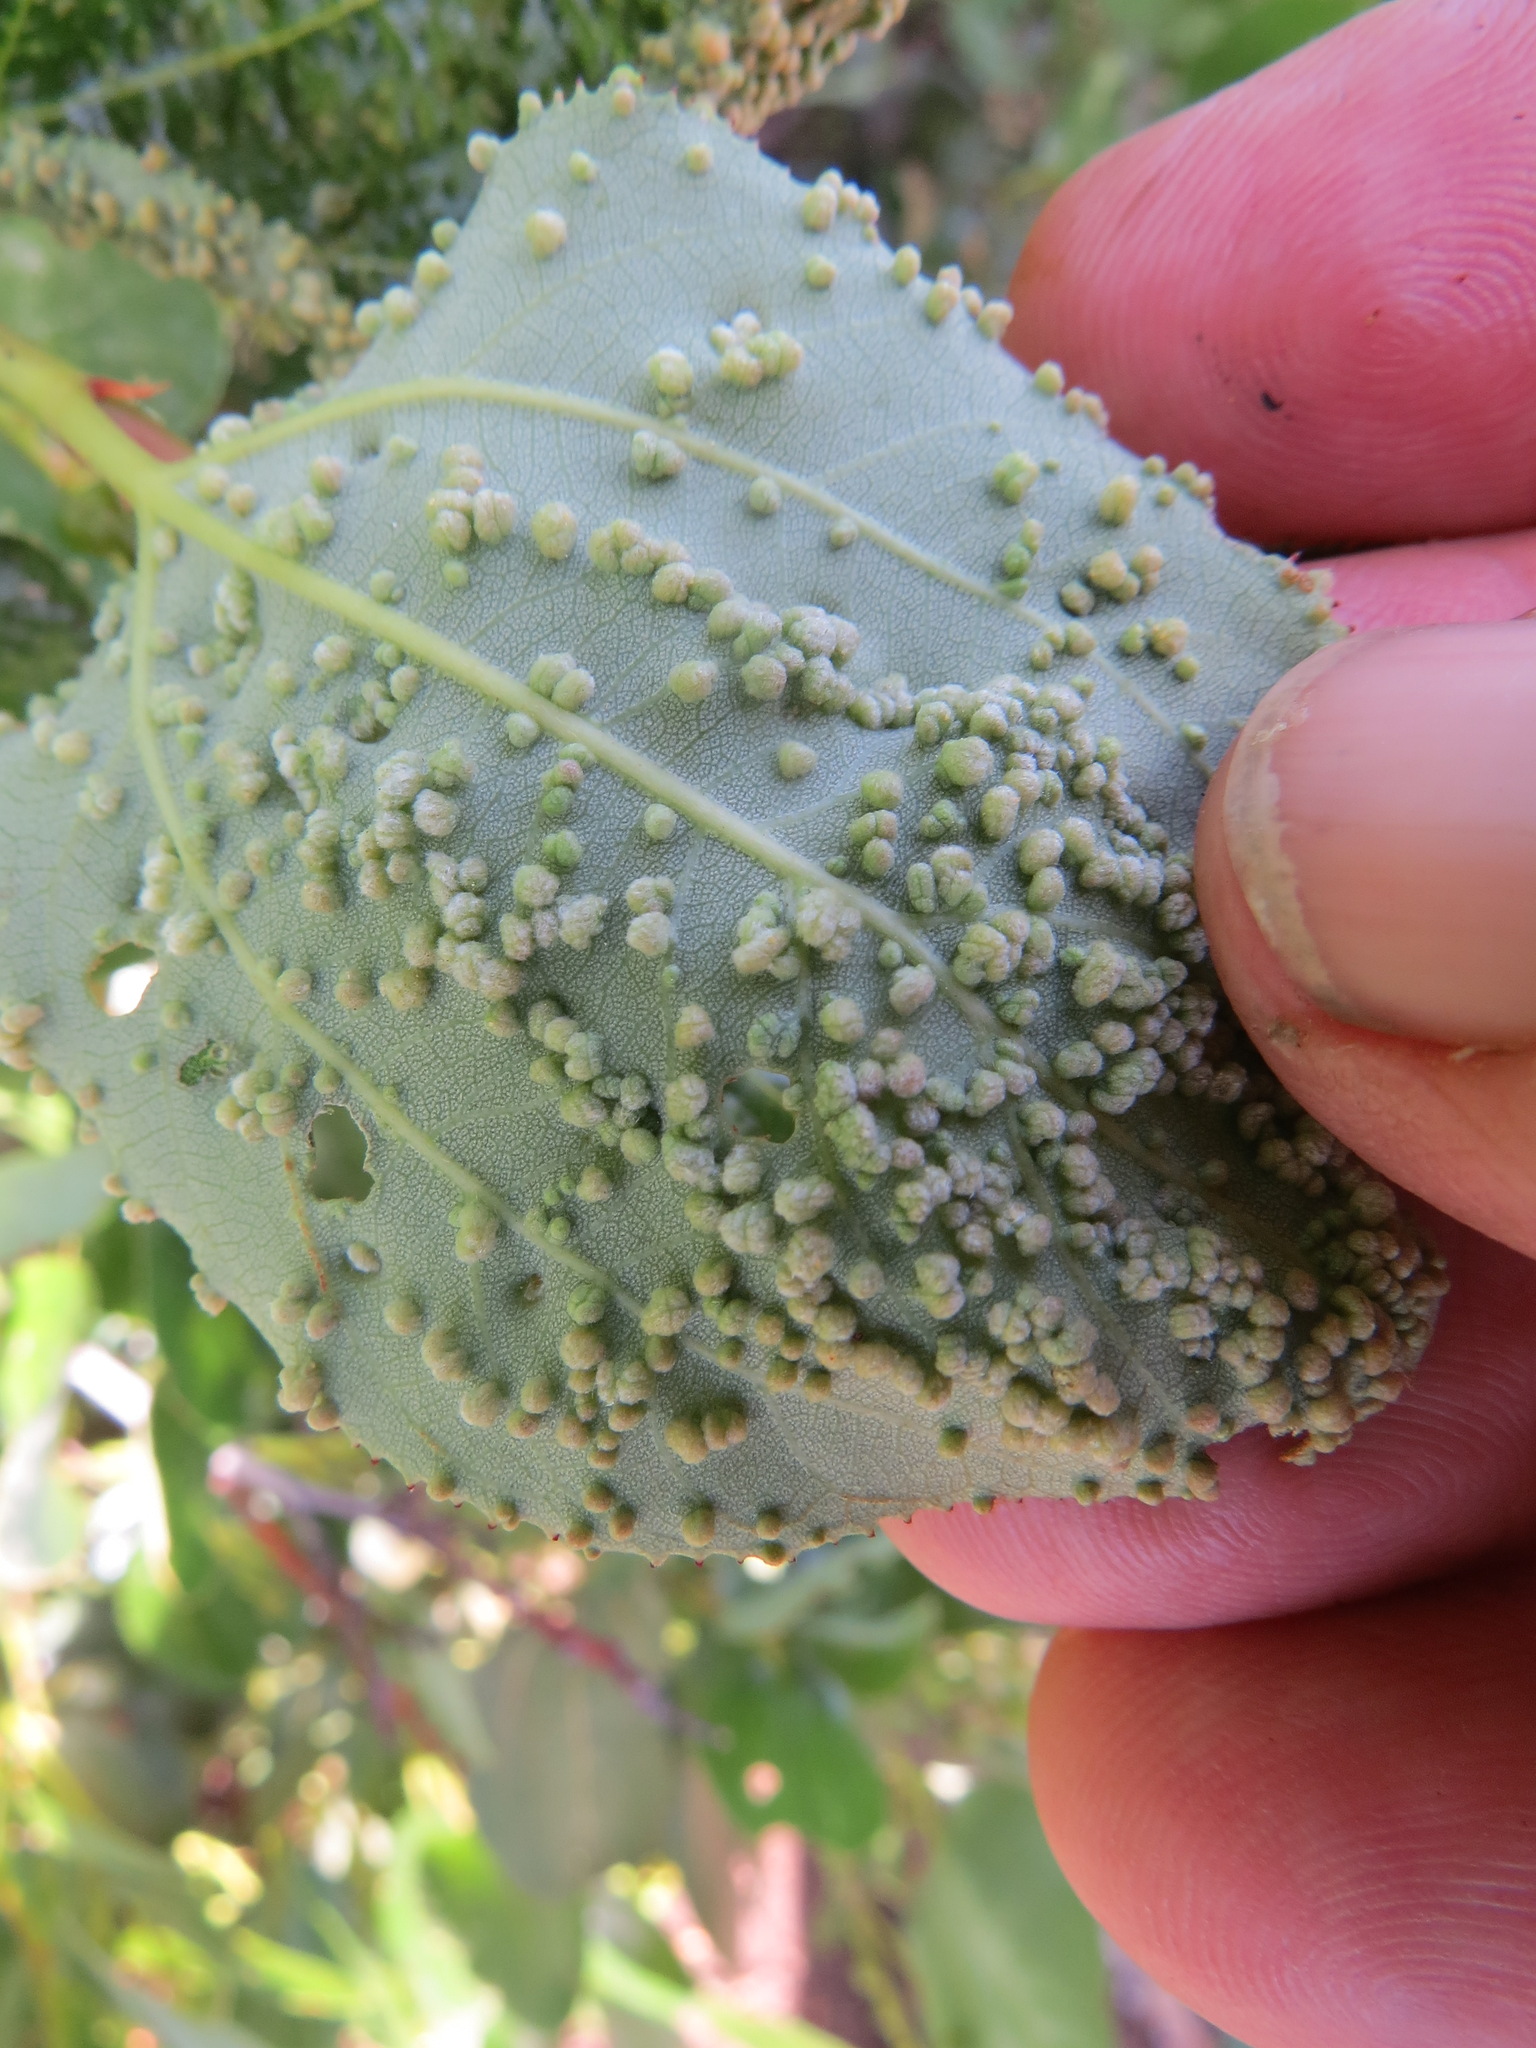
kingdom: Animalia
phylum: Arthropoda
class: Arachnida
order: Trombidiformes
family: Eriophyidae
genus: Aceria
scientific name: Aceria
